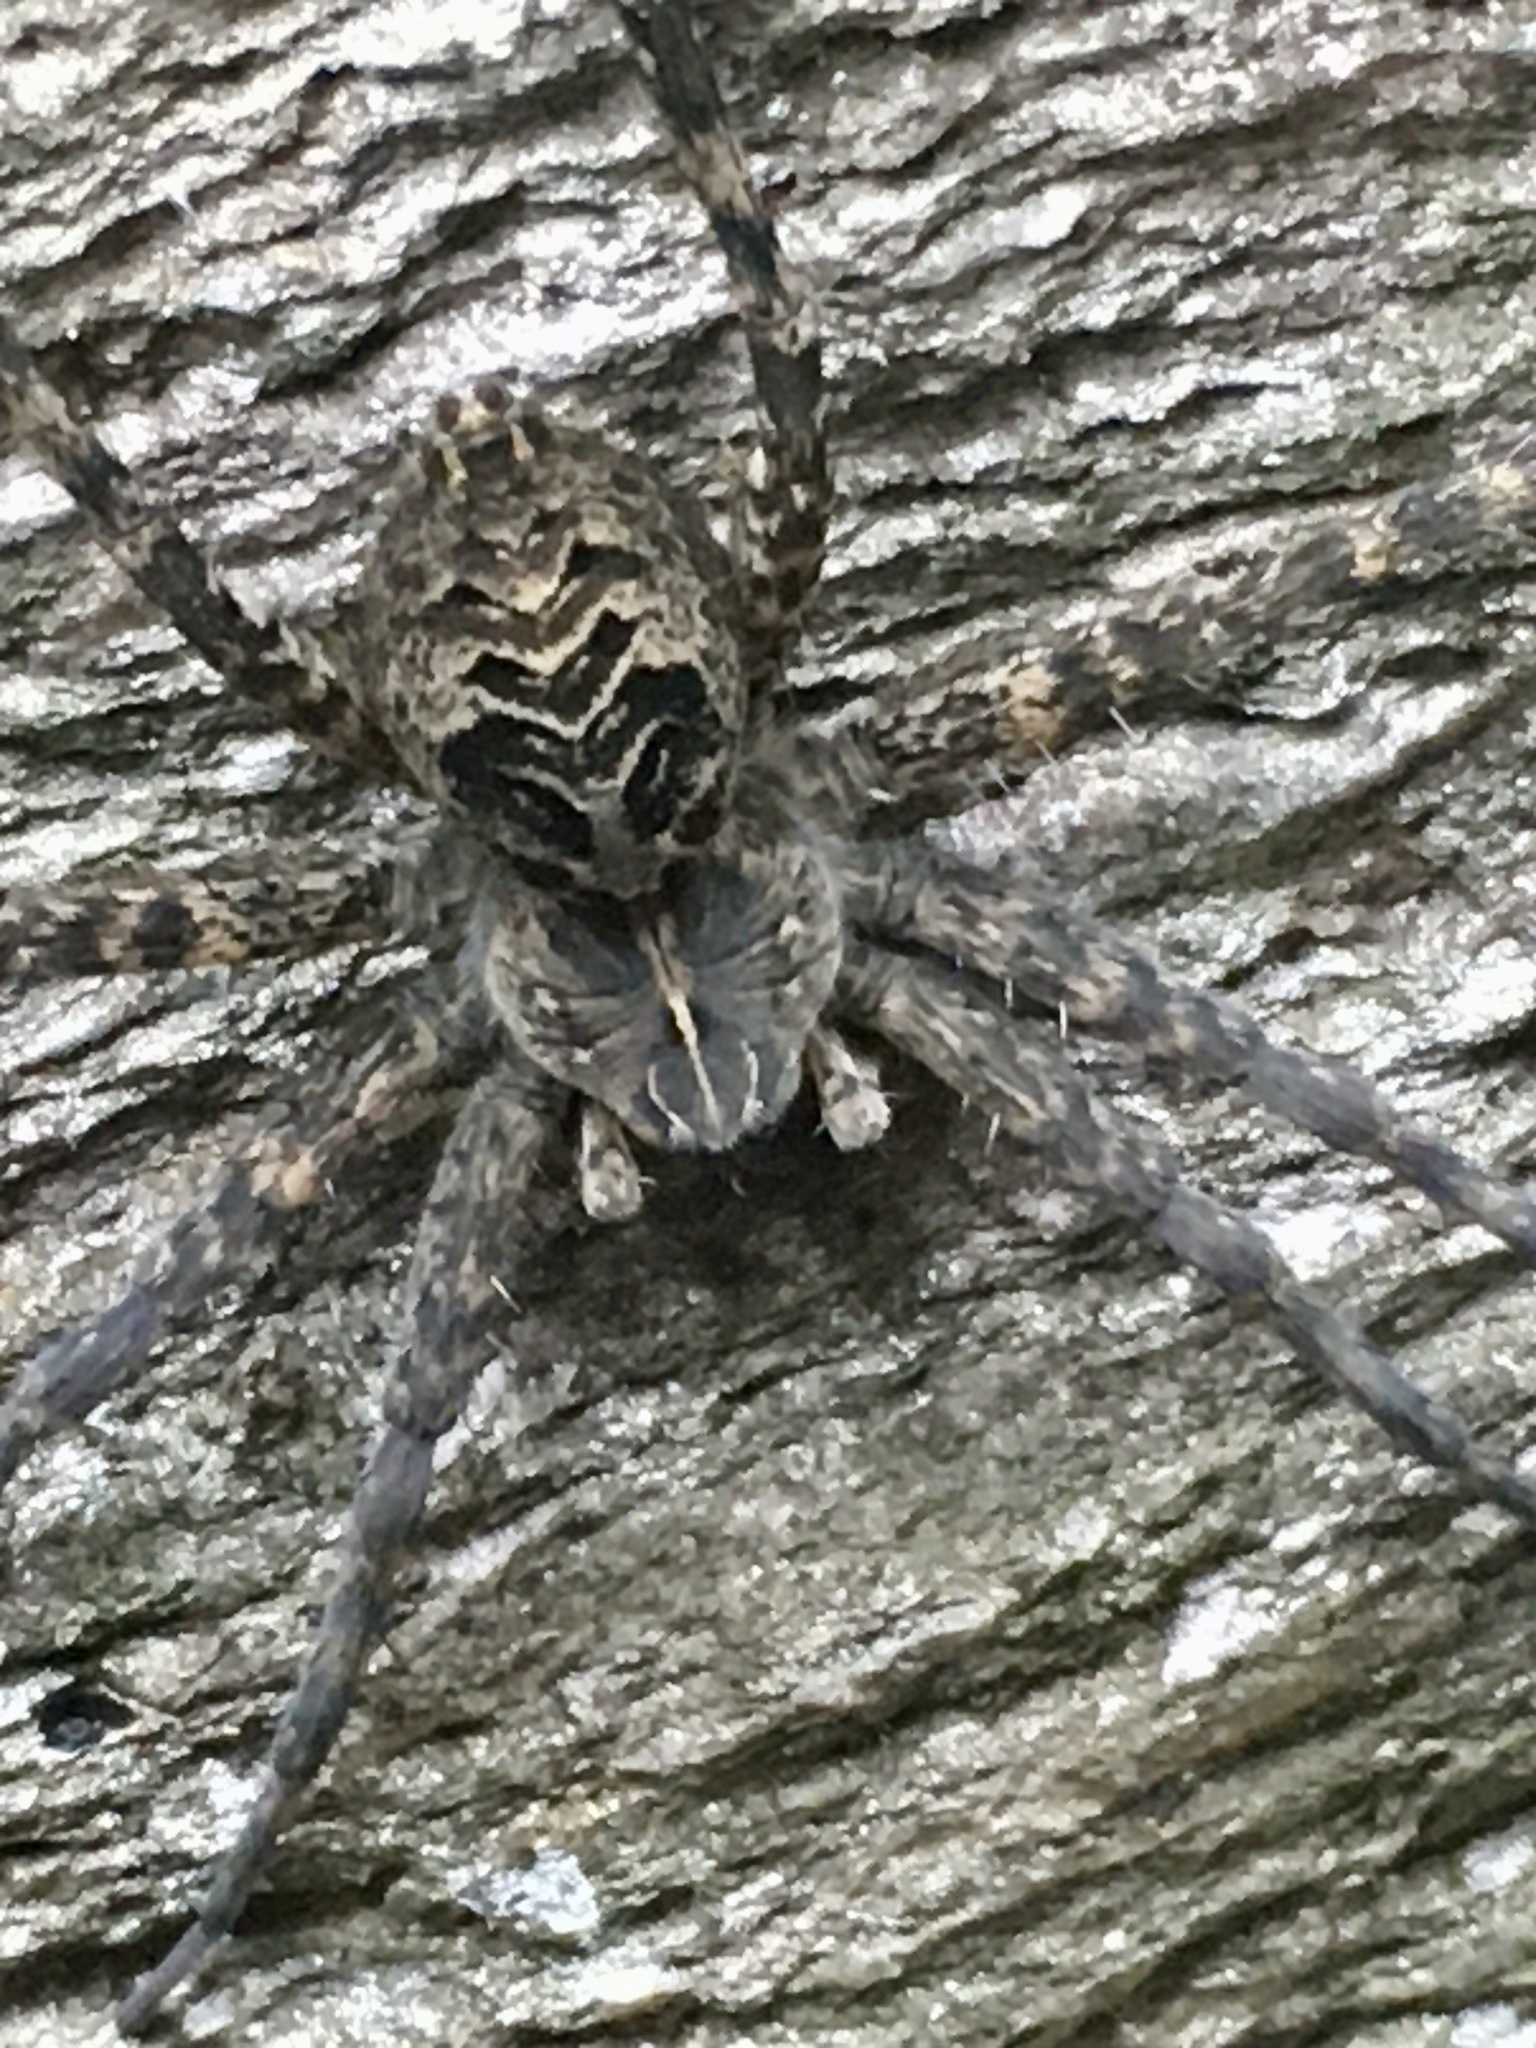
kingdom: Animalia
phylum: Arthropoda
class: Arachnida
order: Araneae
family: Pisauridae
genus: Dolomedes
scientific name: Dolomedes scriptus
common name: Striped fishing spider
